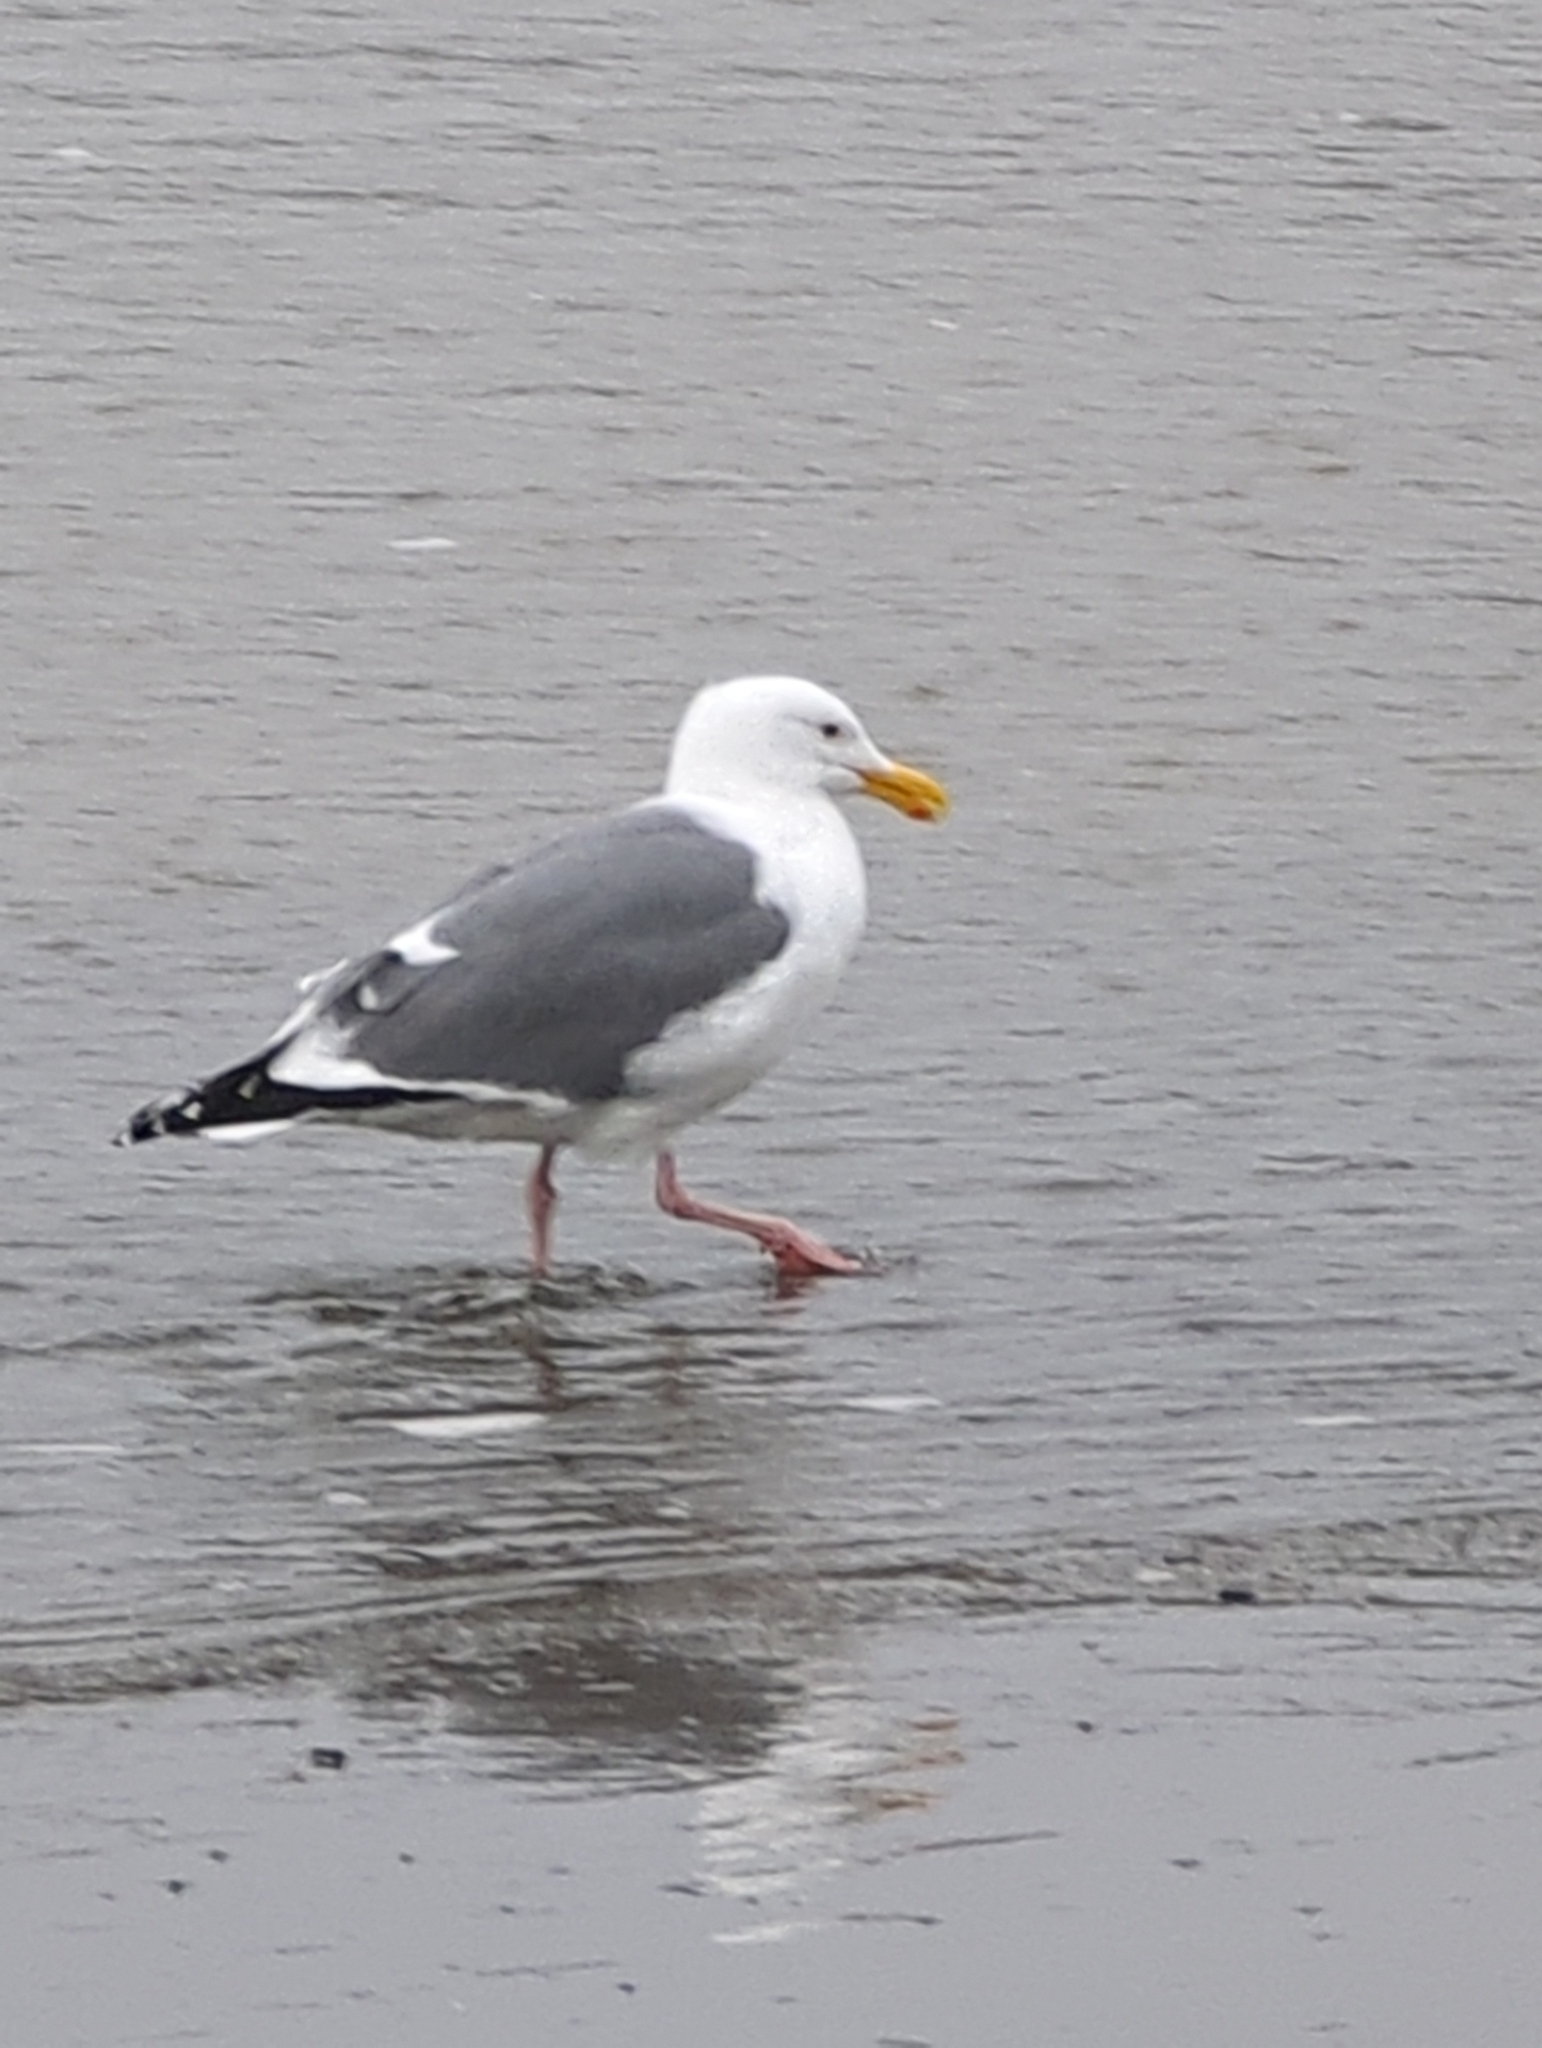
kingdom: Animalia
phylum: Chordata
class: Aves
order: Charadriiformes
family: Laridae
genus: Larus
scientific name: Larus occidentalis
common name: Western gull
